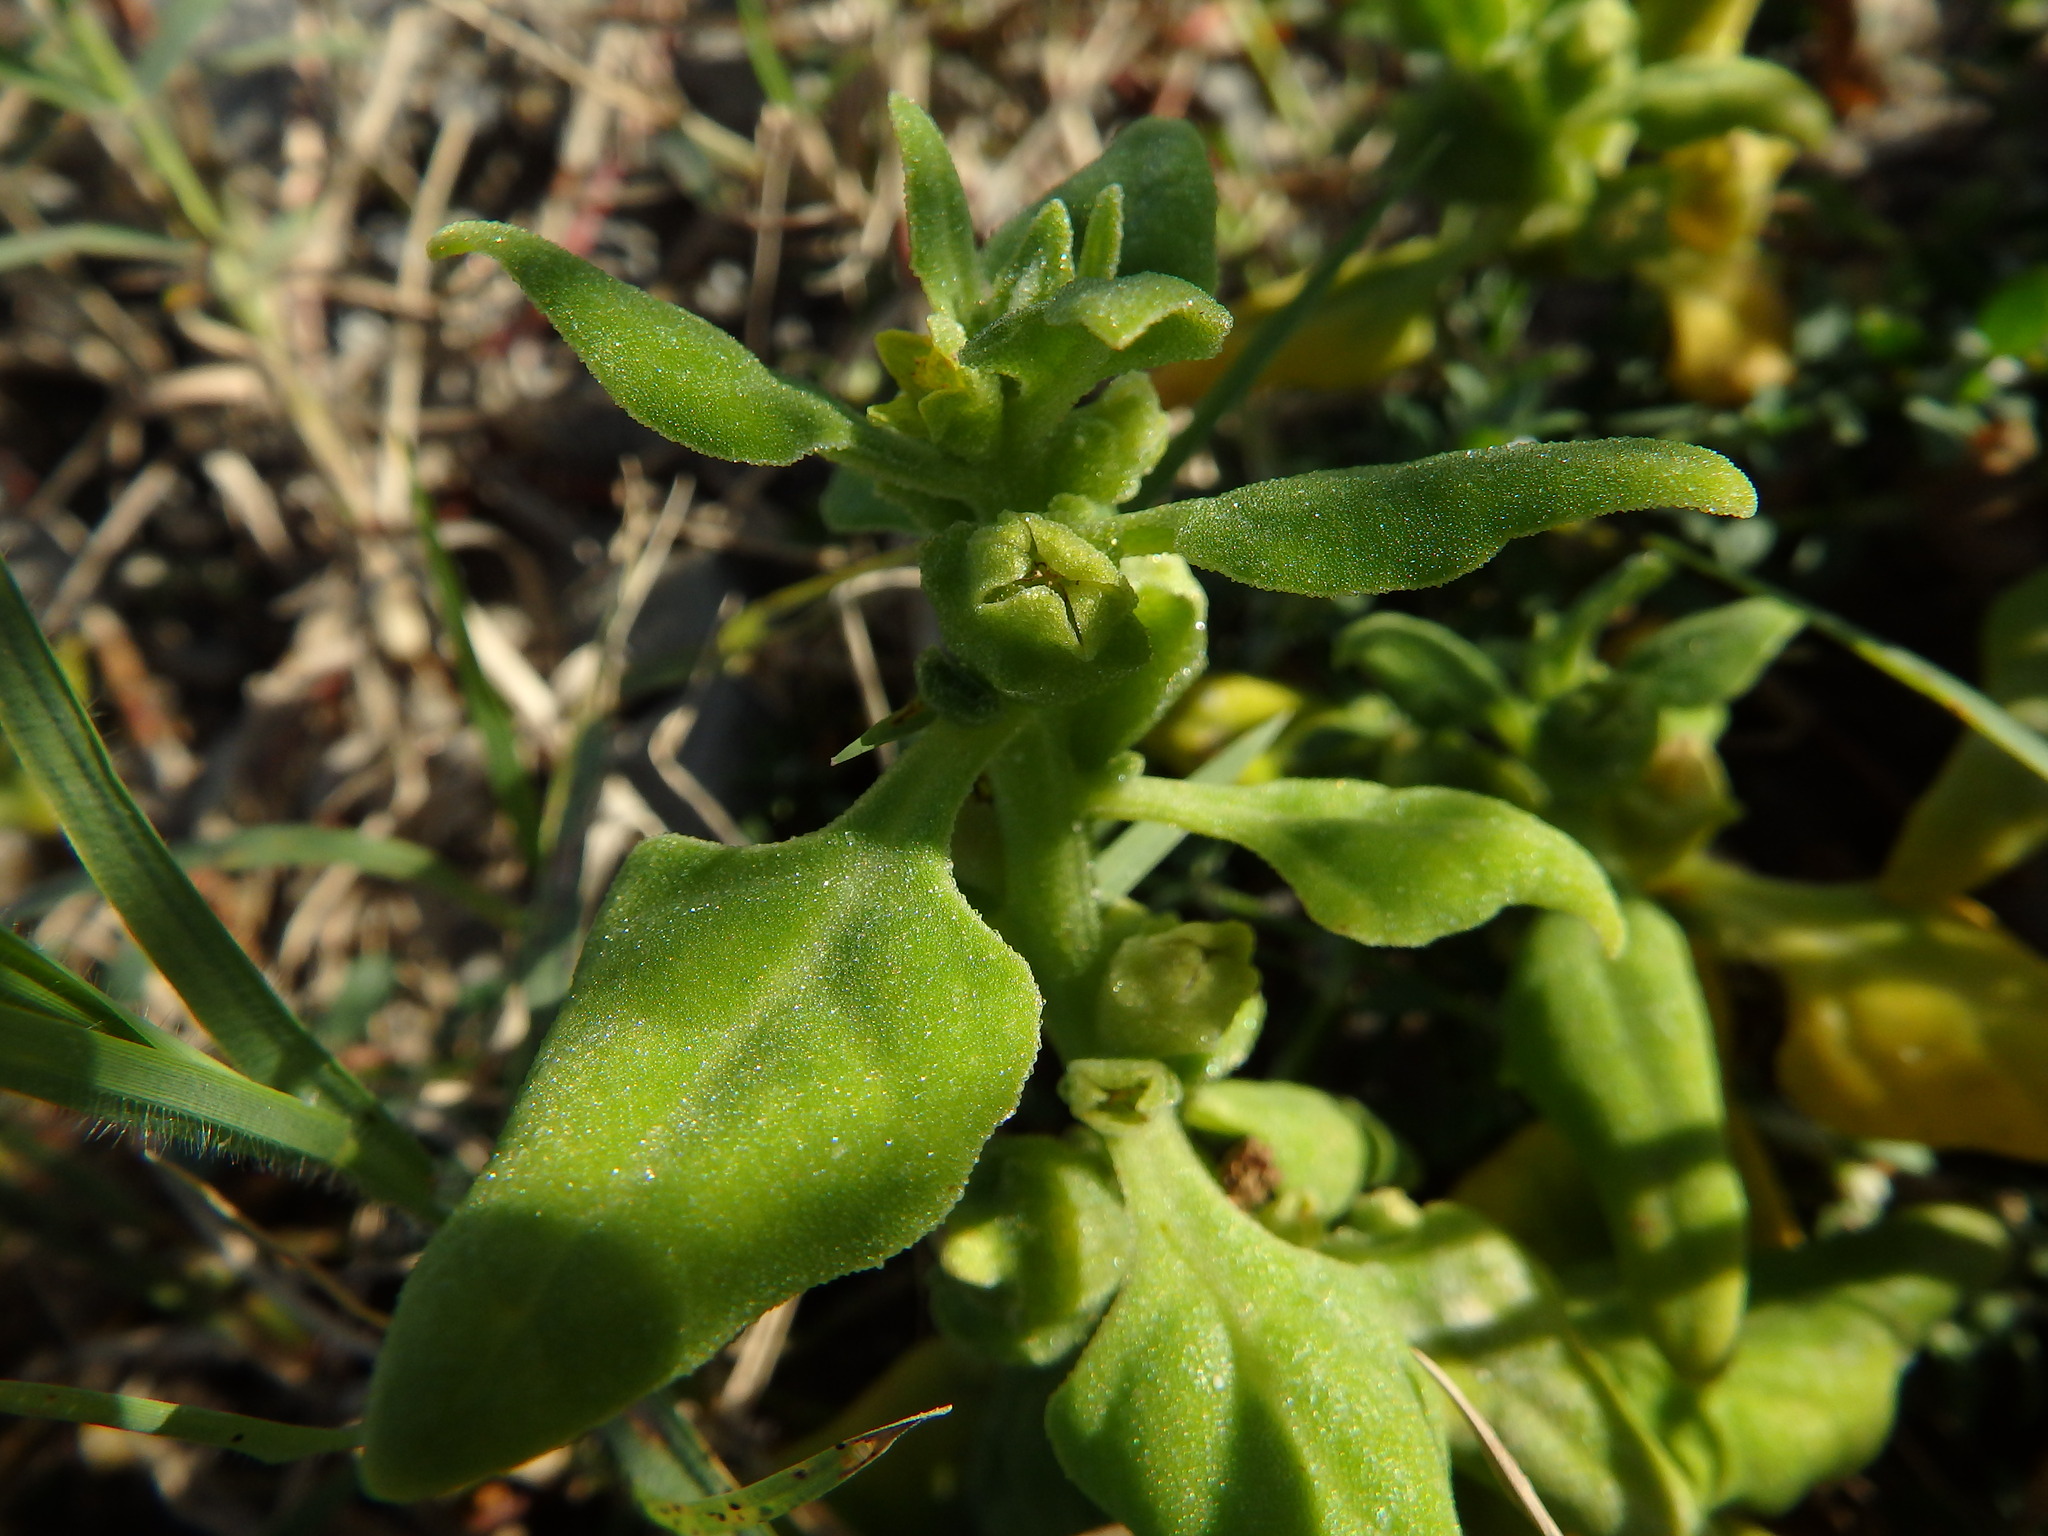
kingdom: Plantae
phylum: Tracheophyta
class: Magnoliopsida
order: Caryophyllales
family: Aizoaceae
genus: Tetragonia
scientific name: Tetragonia tetragonoides
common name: New zealand-spinach
